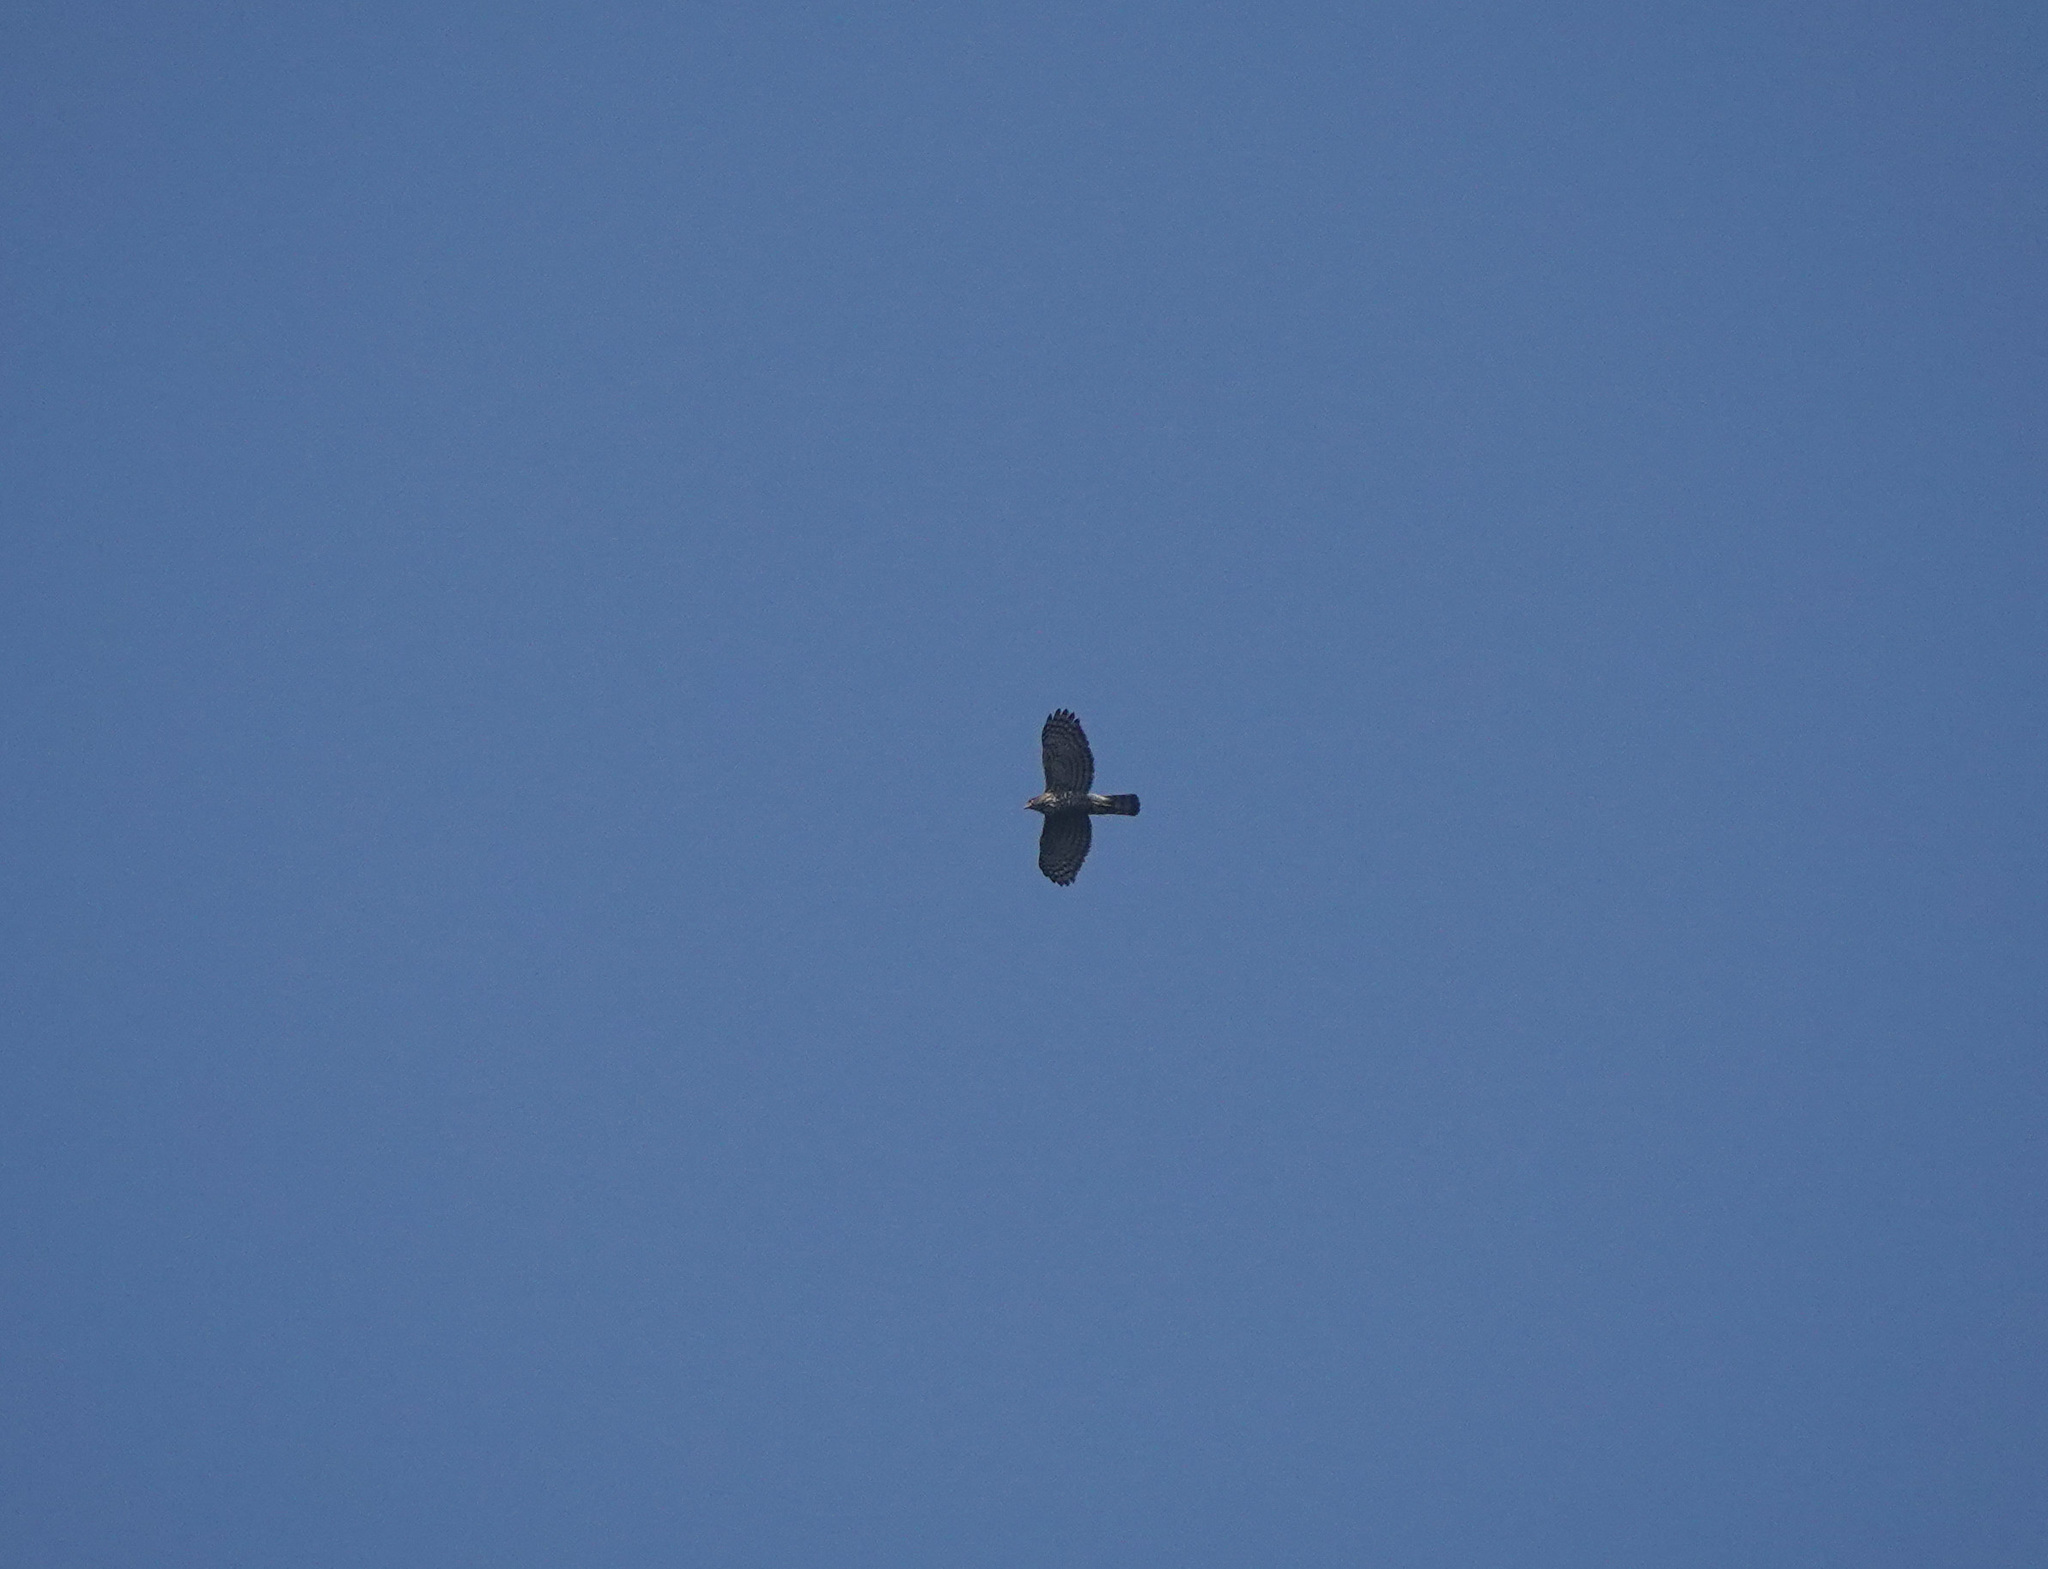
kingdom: Animalia
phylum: Chordata
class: Aves
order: Accipitriformes
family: Accipitridae
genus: Accipiter
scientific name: Accipiter trivirgatus
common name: Crested goshawk
